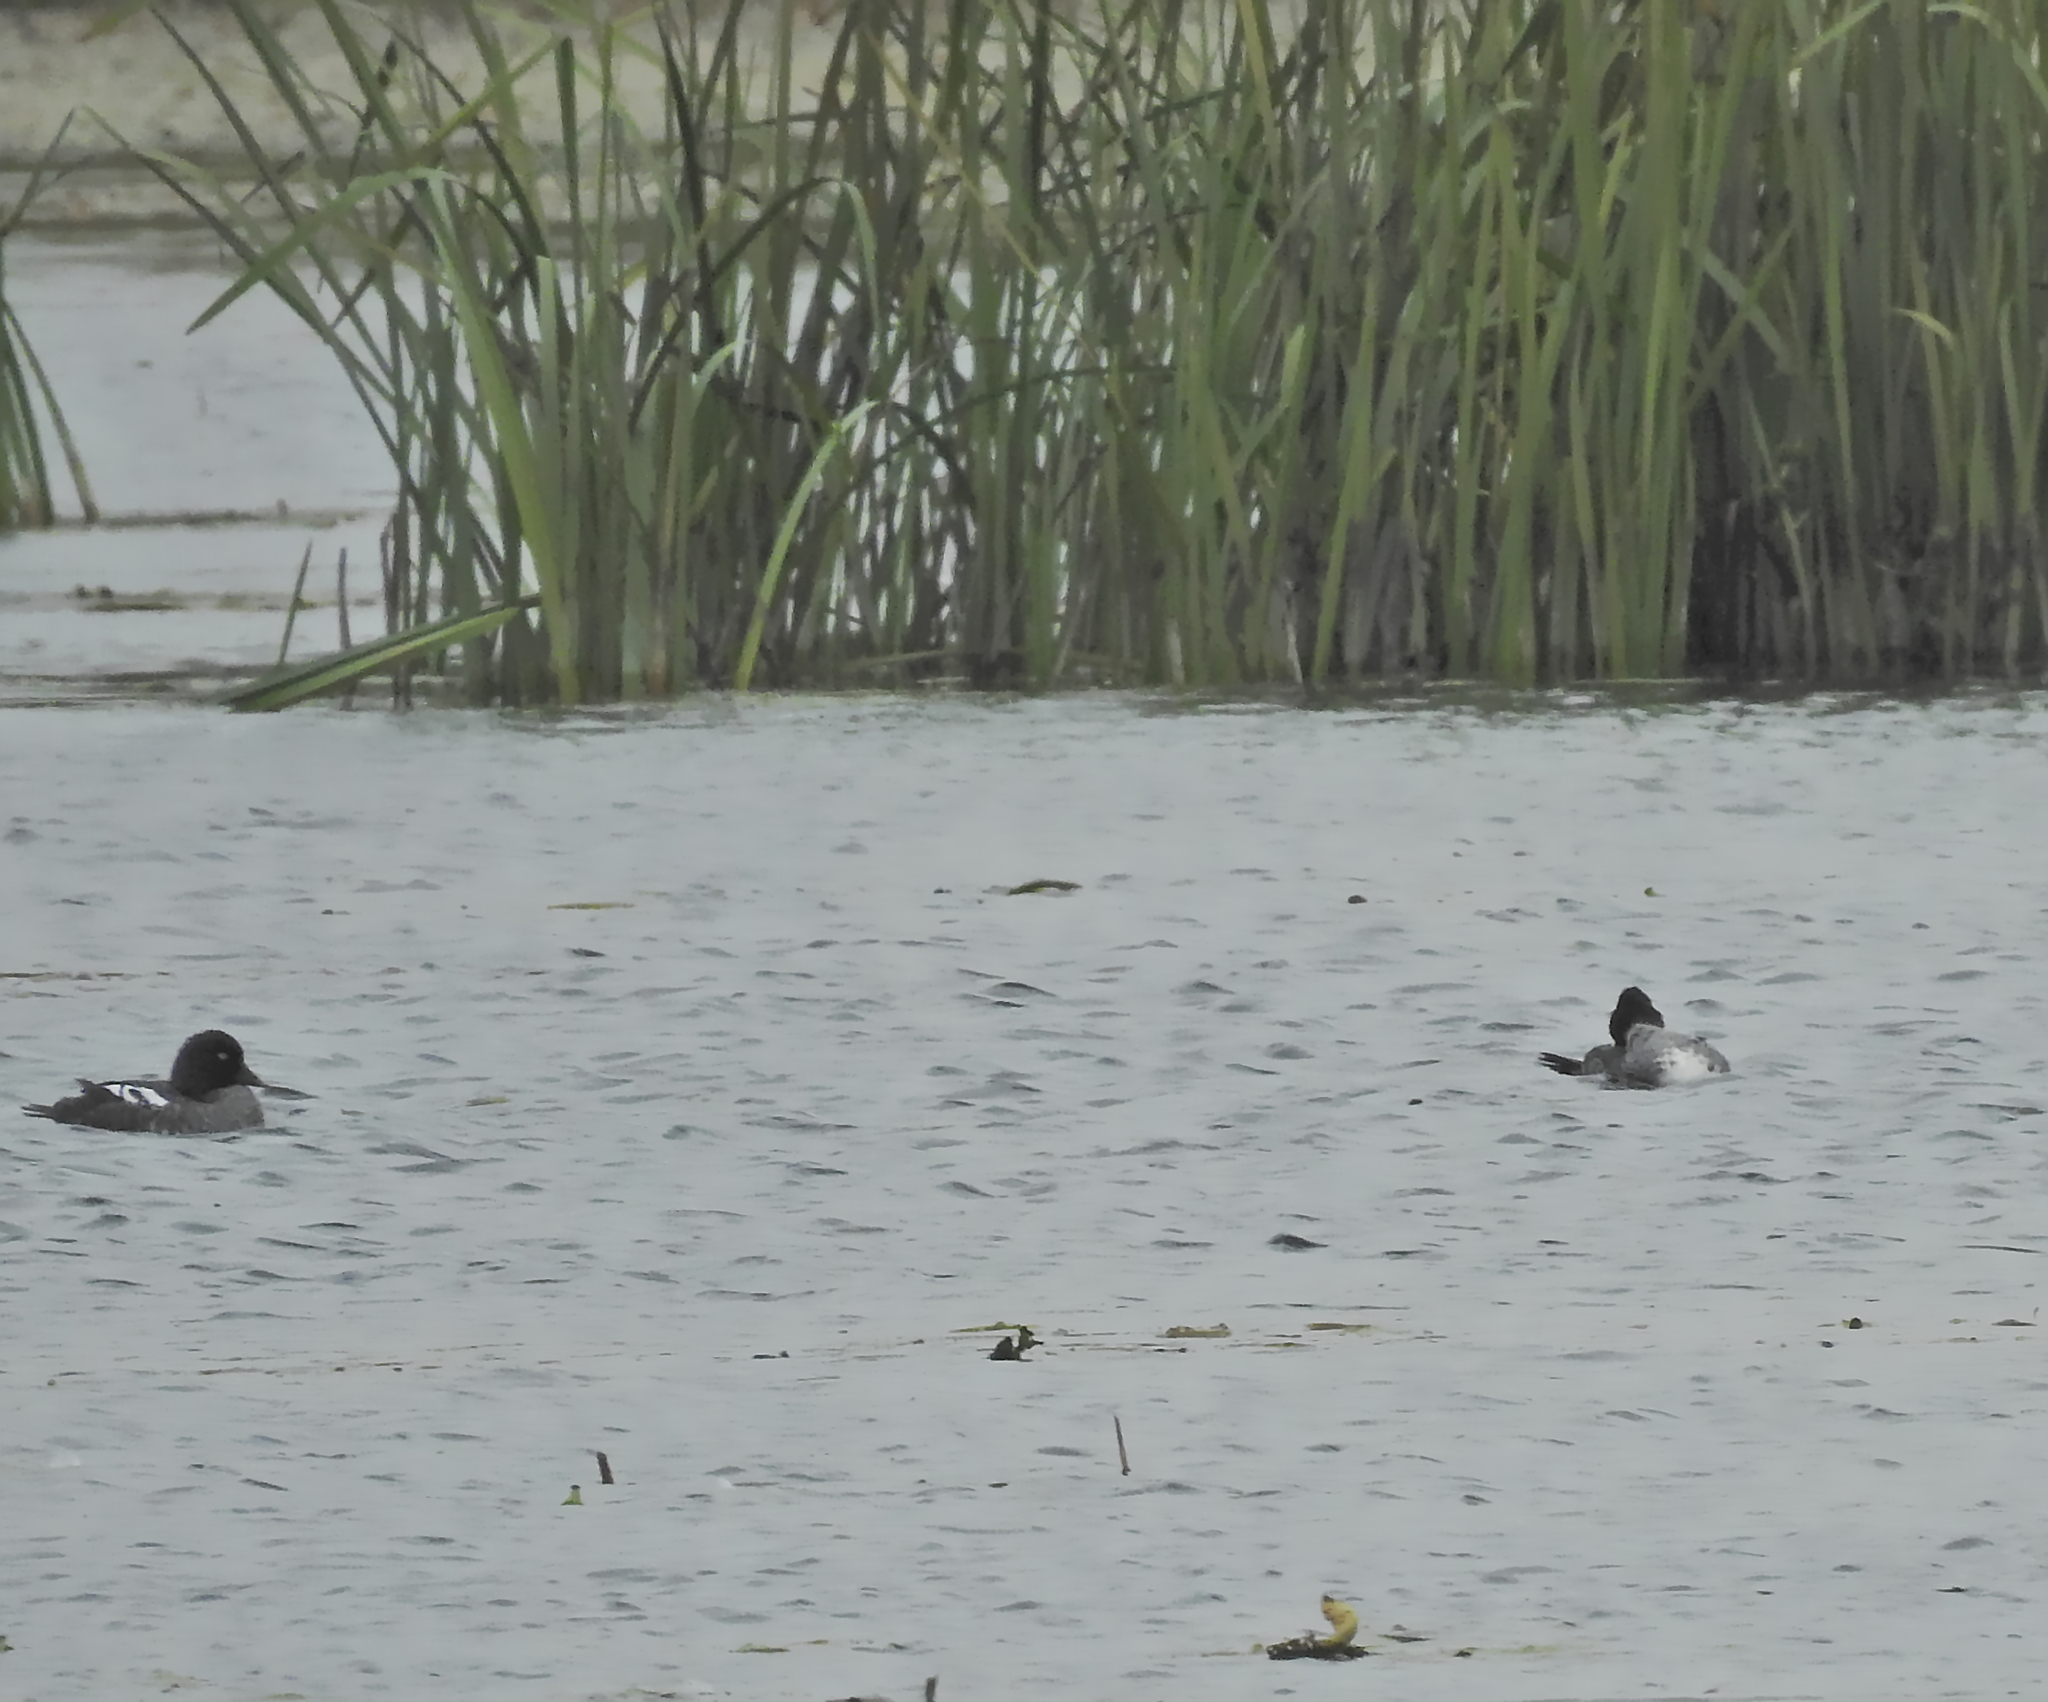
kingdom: Animalia
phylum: Chordata
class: Aves
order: Anseriformes
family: Anatidae
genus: Bucephala
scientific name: Bucephala clangula
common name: Common goldeneye
